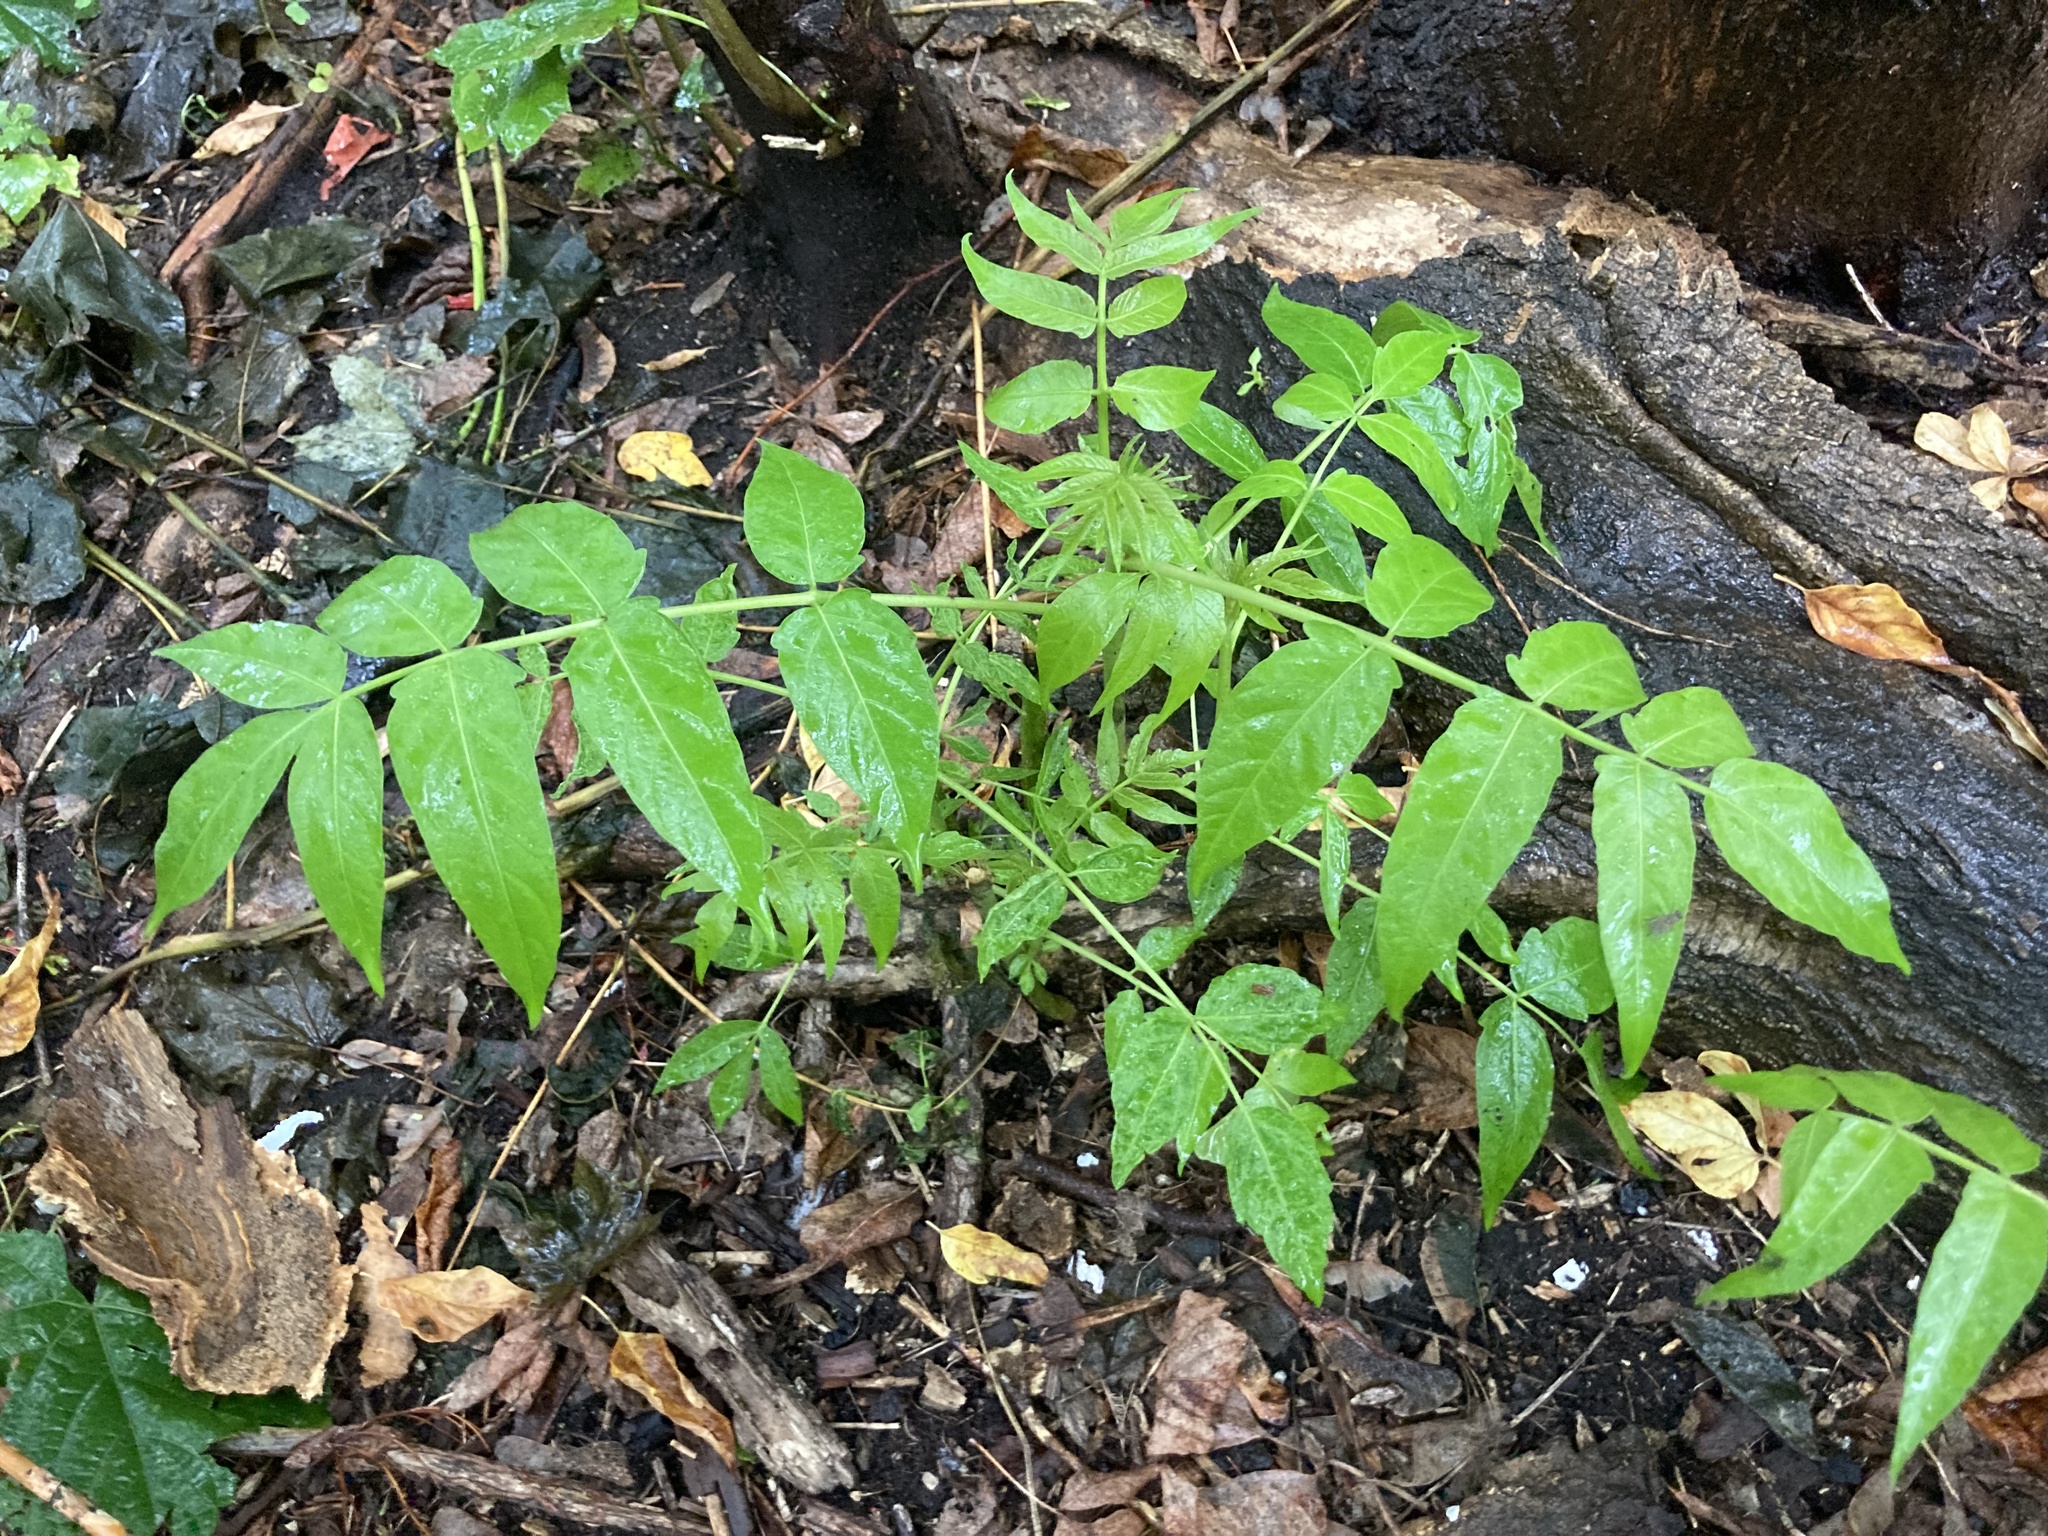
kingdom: Plantae
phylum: Tracheophyta
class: Magnoliopsida
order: Sapindales
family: Simaroubaceae
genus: Ailanthus
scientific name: Ailanthus altissima
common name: Tree-of-heaven
